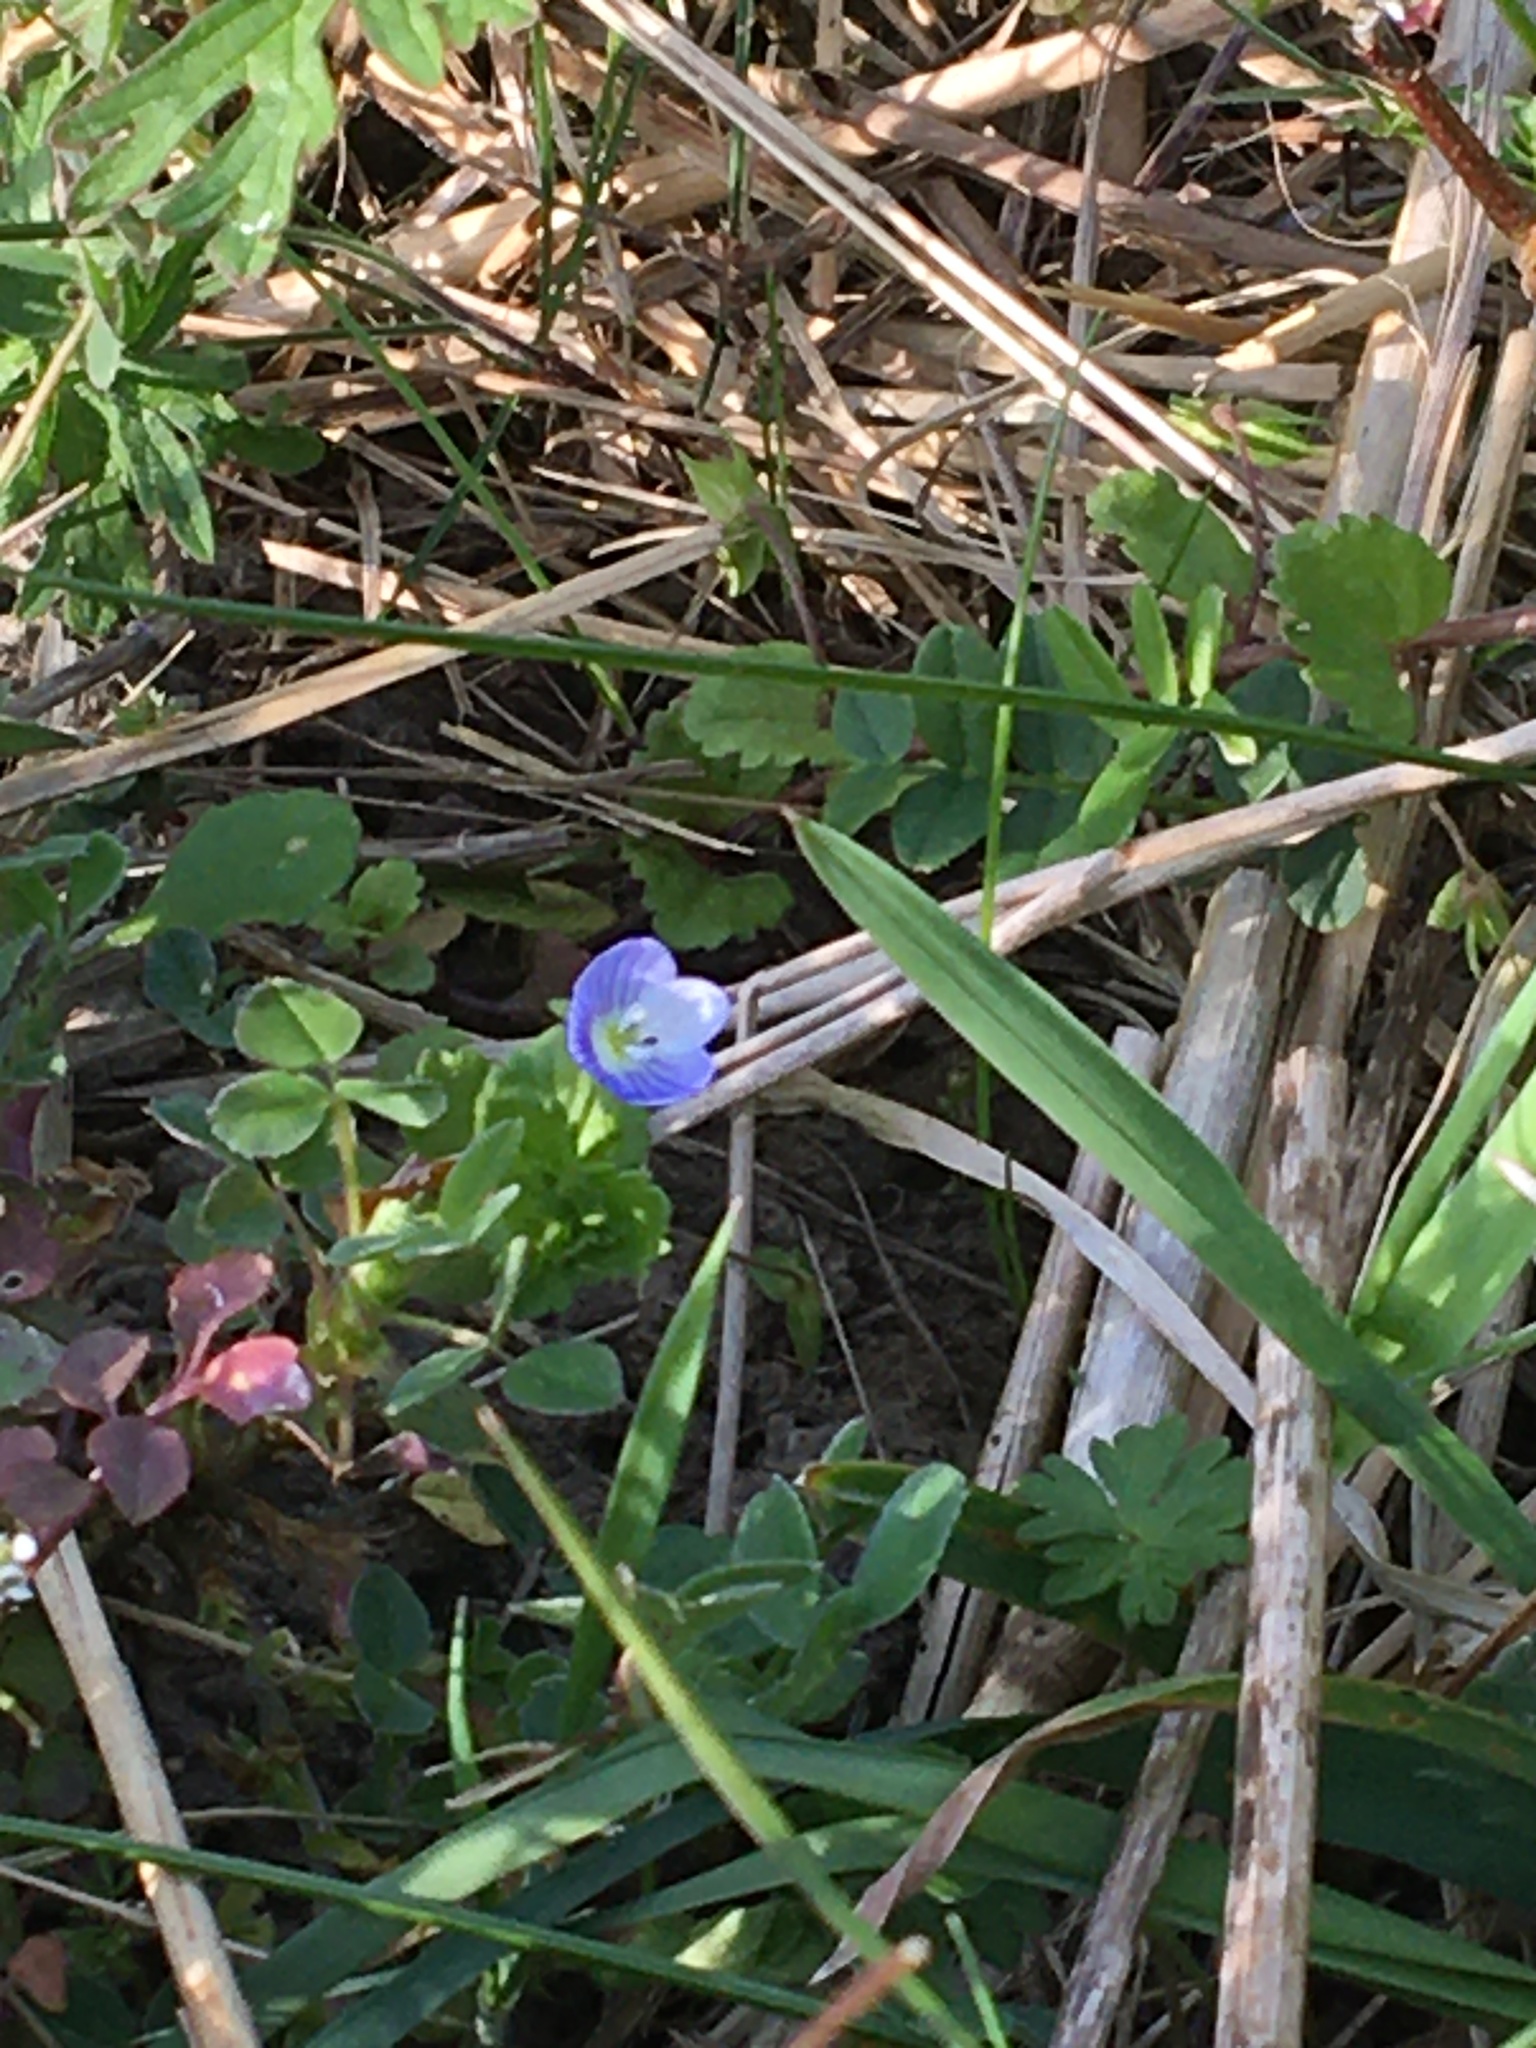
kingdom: Plantae
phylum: Tracheophyta
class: Magnoliopsida
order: Lamiales
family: Plantaginaceae
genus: Veronica
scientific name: Veronica persica
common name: Common field-speedwell
